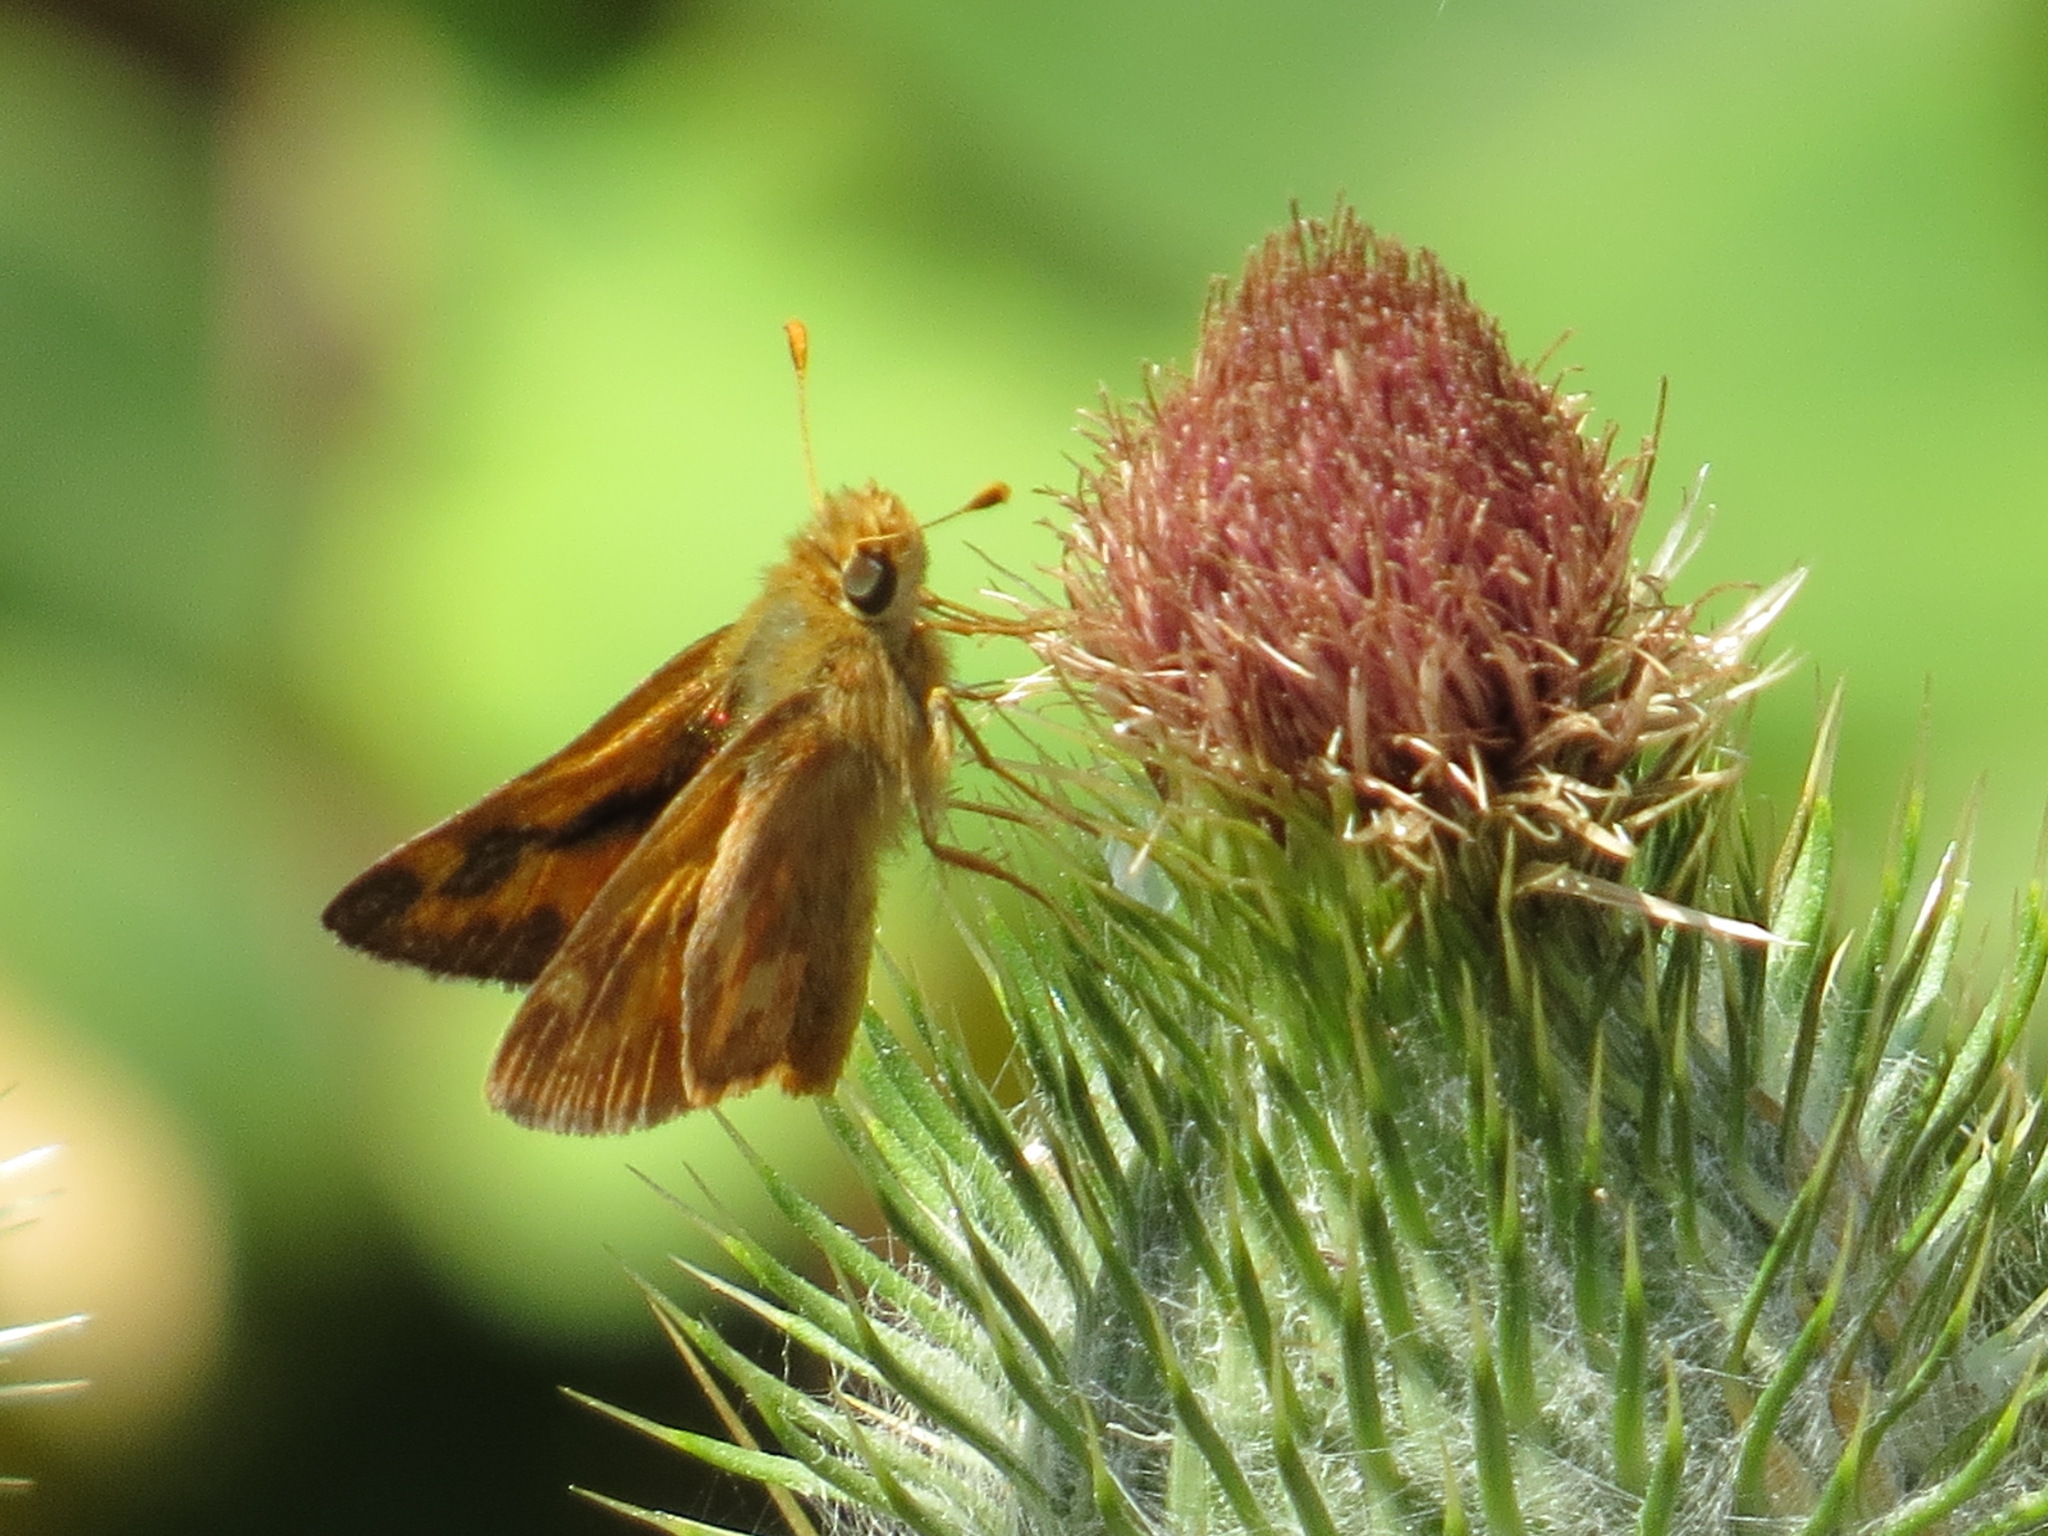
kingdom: Animalia
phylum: Arthropoda
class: Insecta
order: Lepidoptera
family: Hesperiidae
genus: Ochlodes
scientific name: Ochlodes sylvanoides
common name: Woodland skipper
